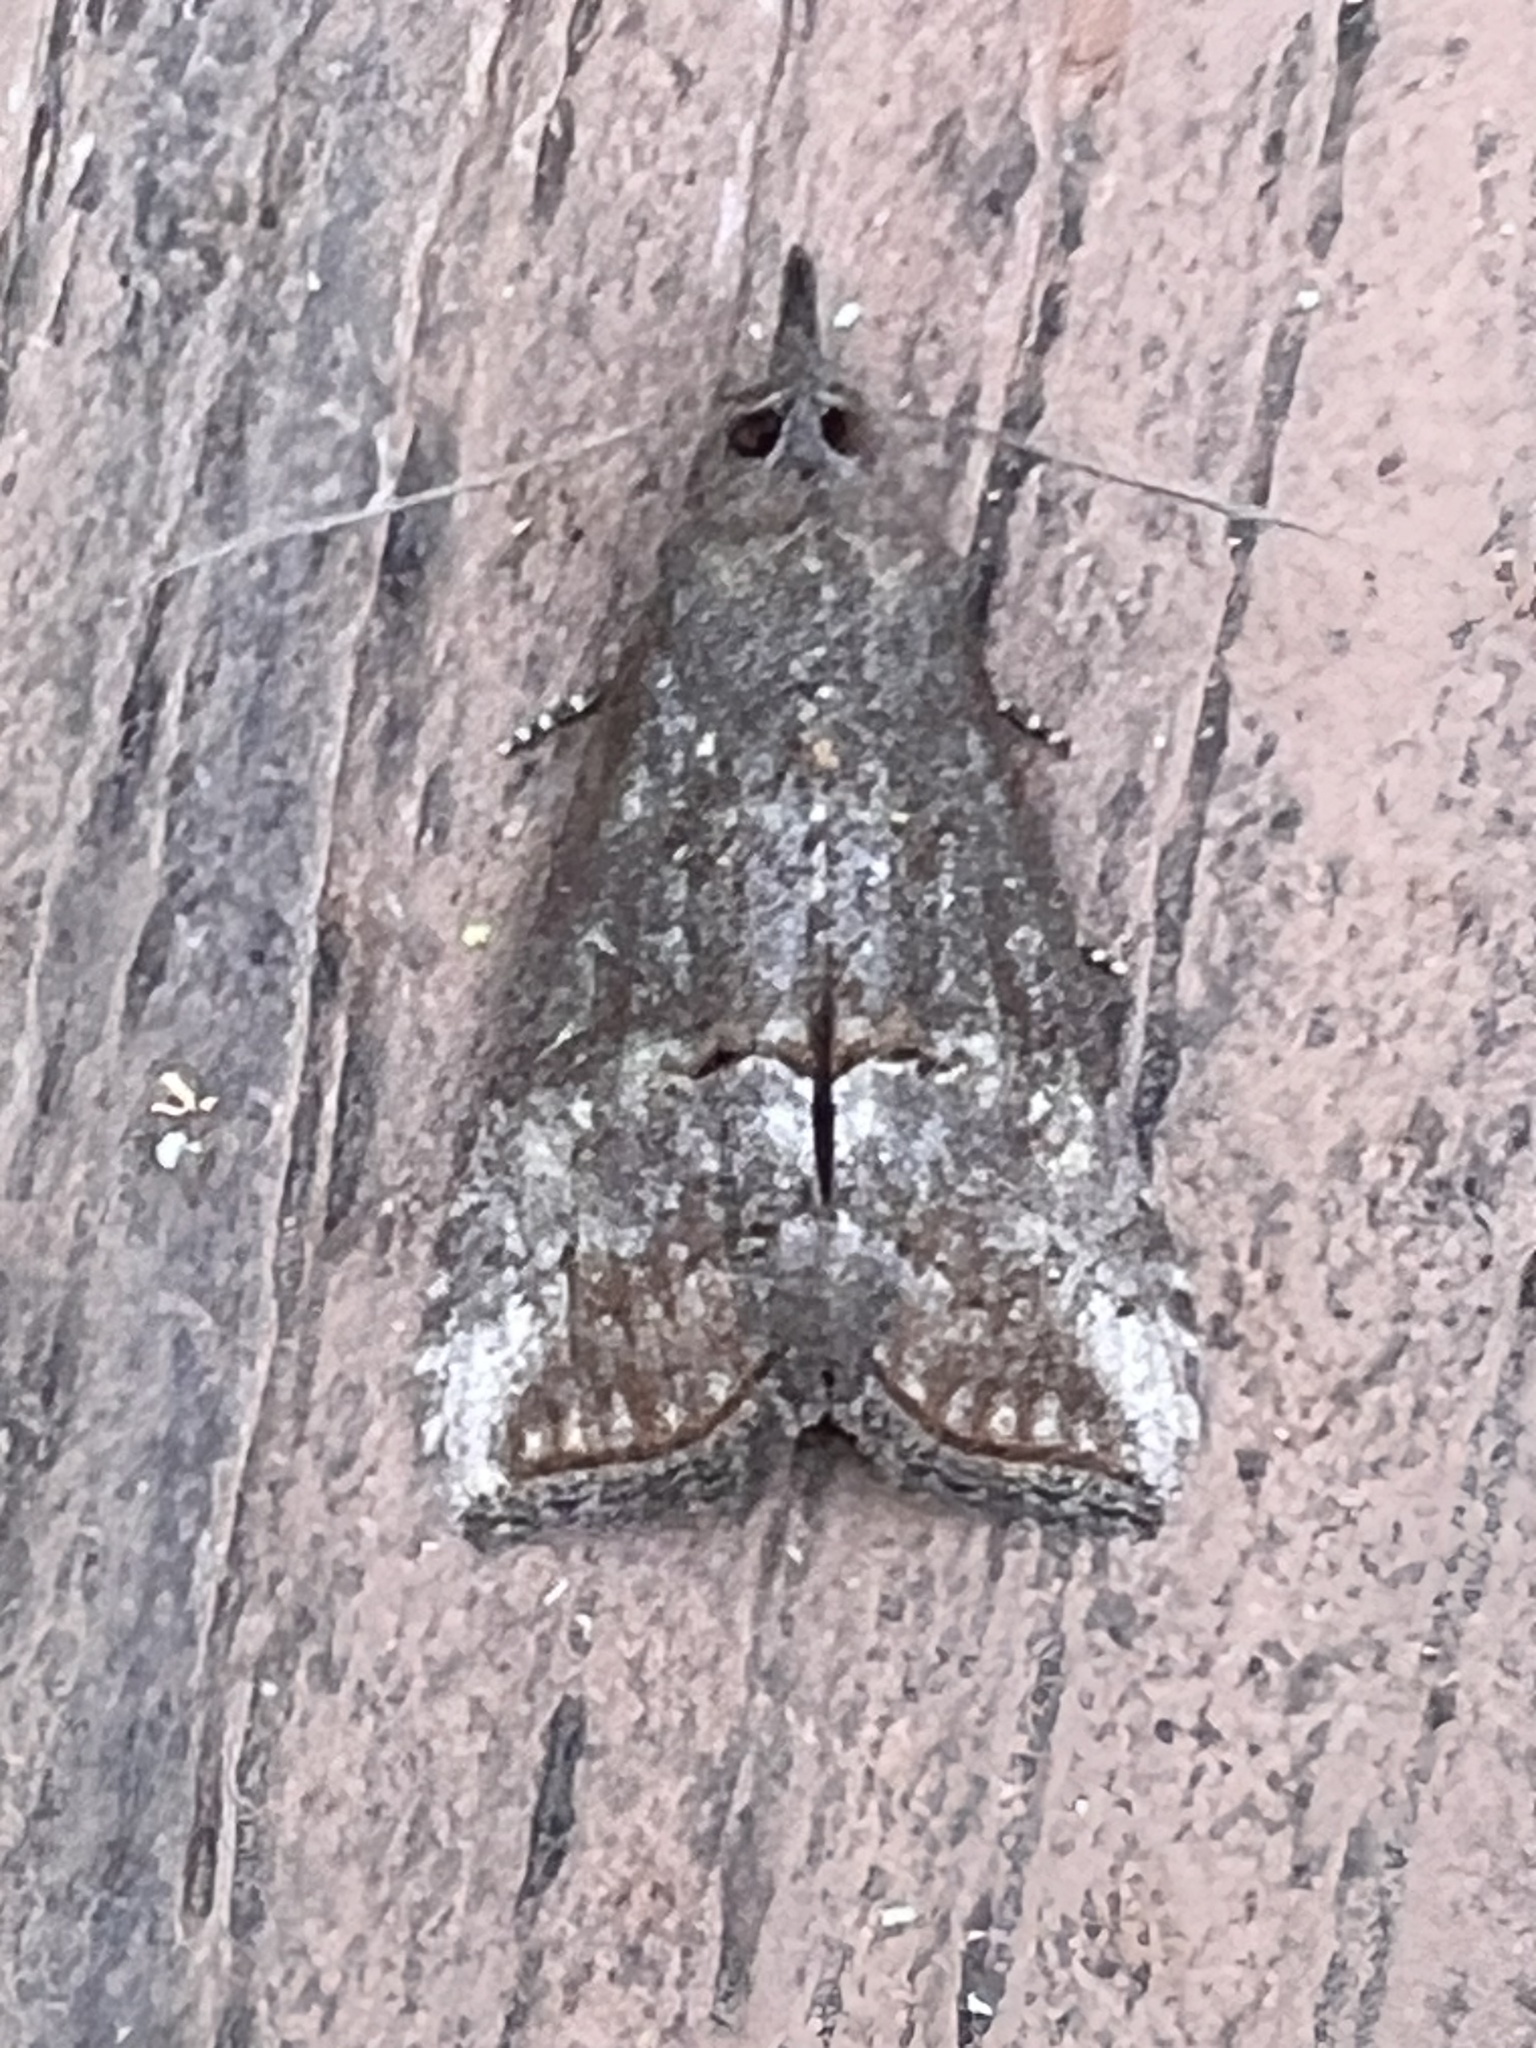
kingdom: Animalia
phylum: Arthropoda
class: Insecta
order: Lepidoptera
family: Erebidae
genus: Hypena
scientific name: Hypena scabra
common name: Green cloverworm
